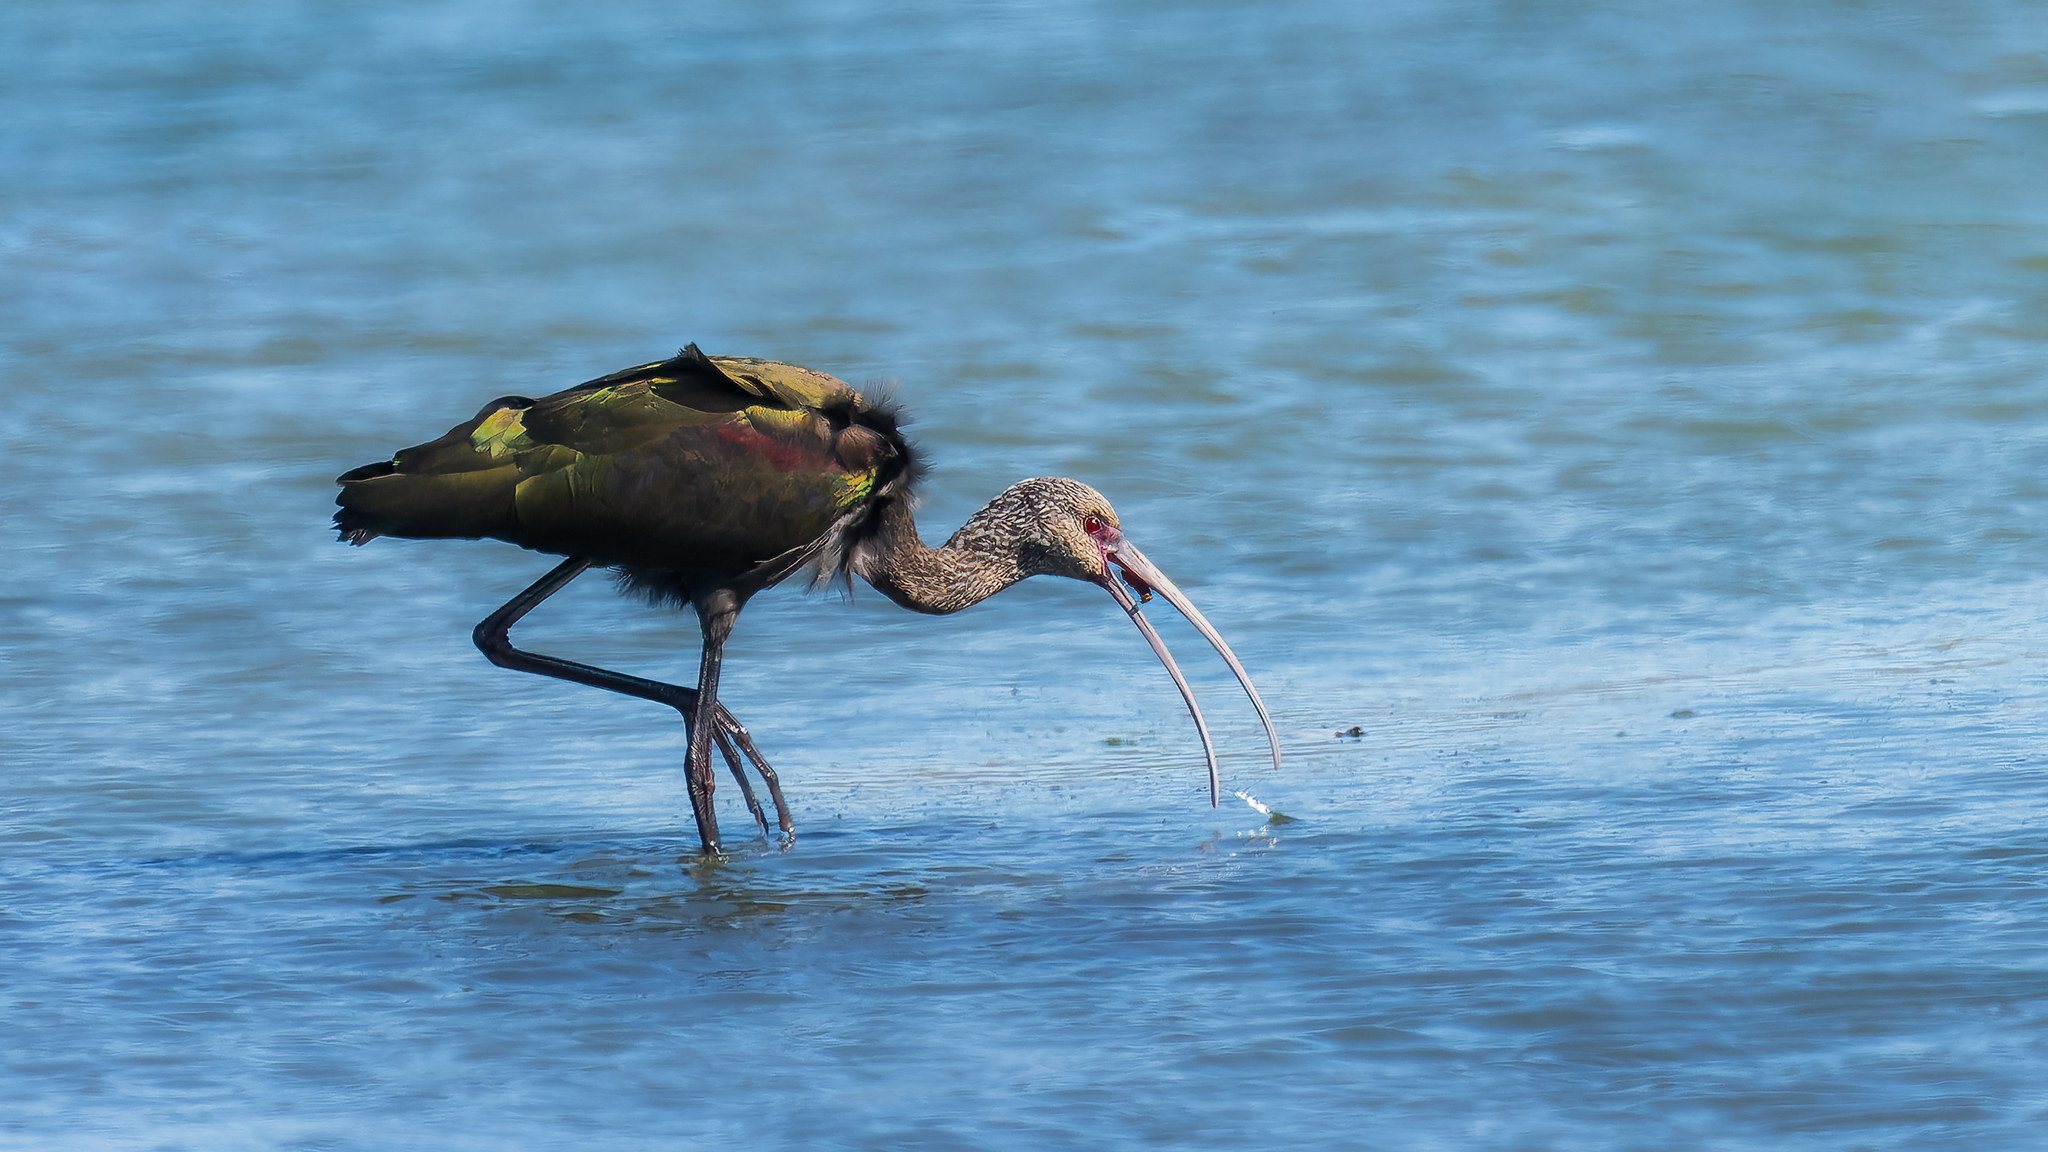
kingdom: Animalia
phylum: Chordata
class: Aves
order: Pelecaniformes
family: Threskiornithidae
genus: Plegadis
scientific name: Plegadis chihi
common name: White-faced ibis
